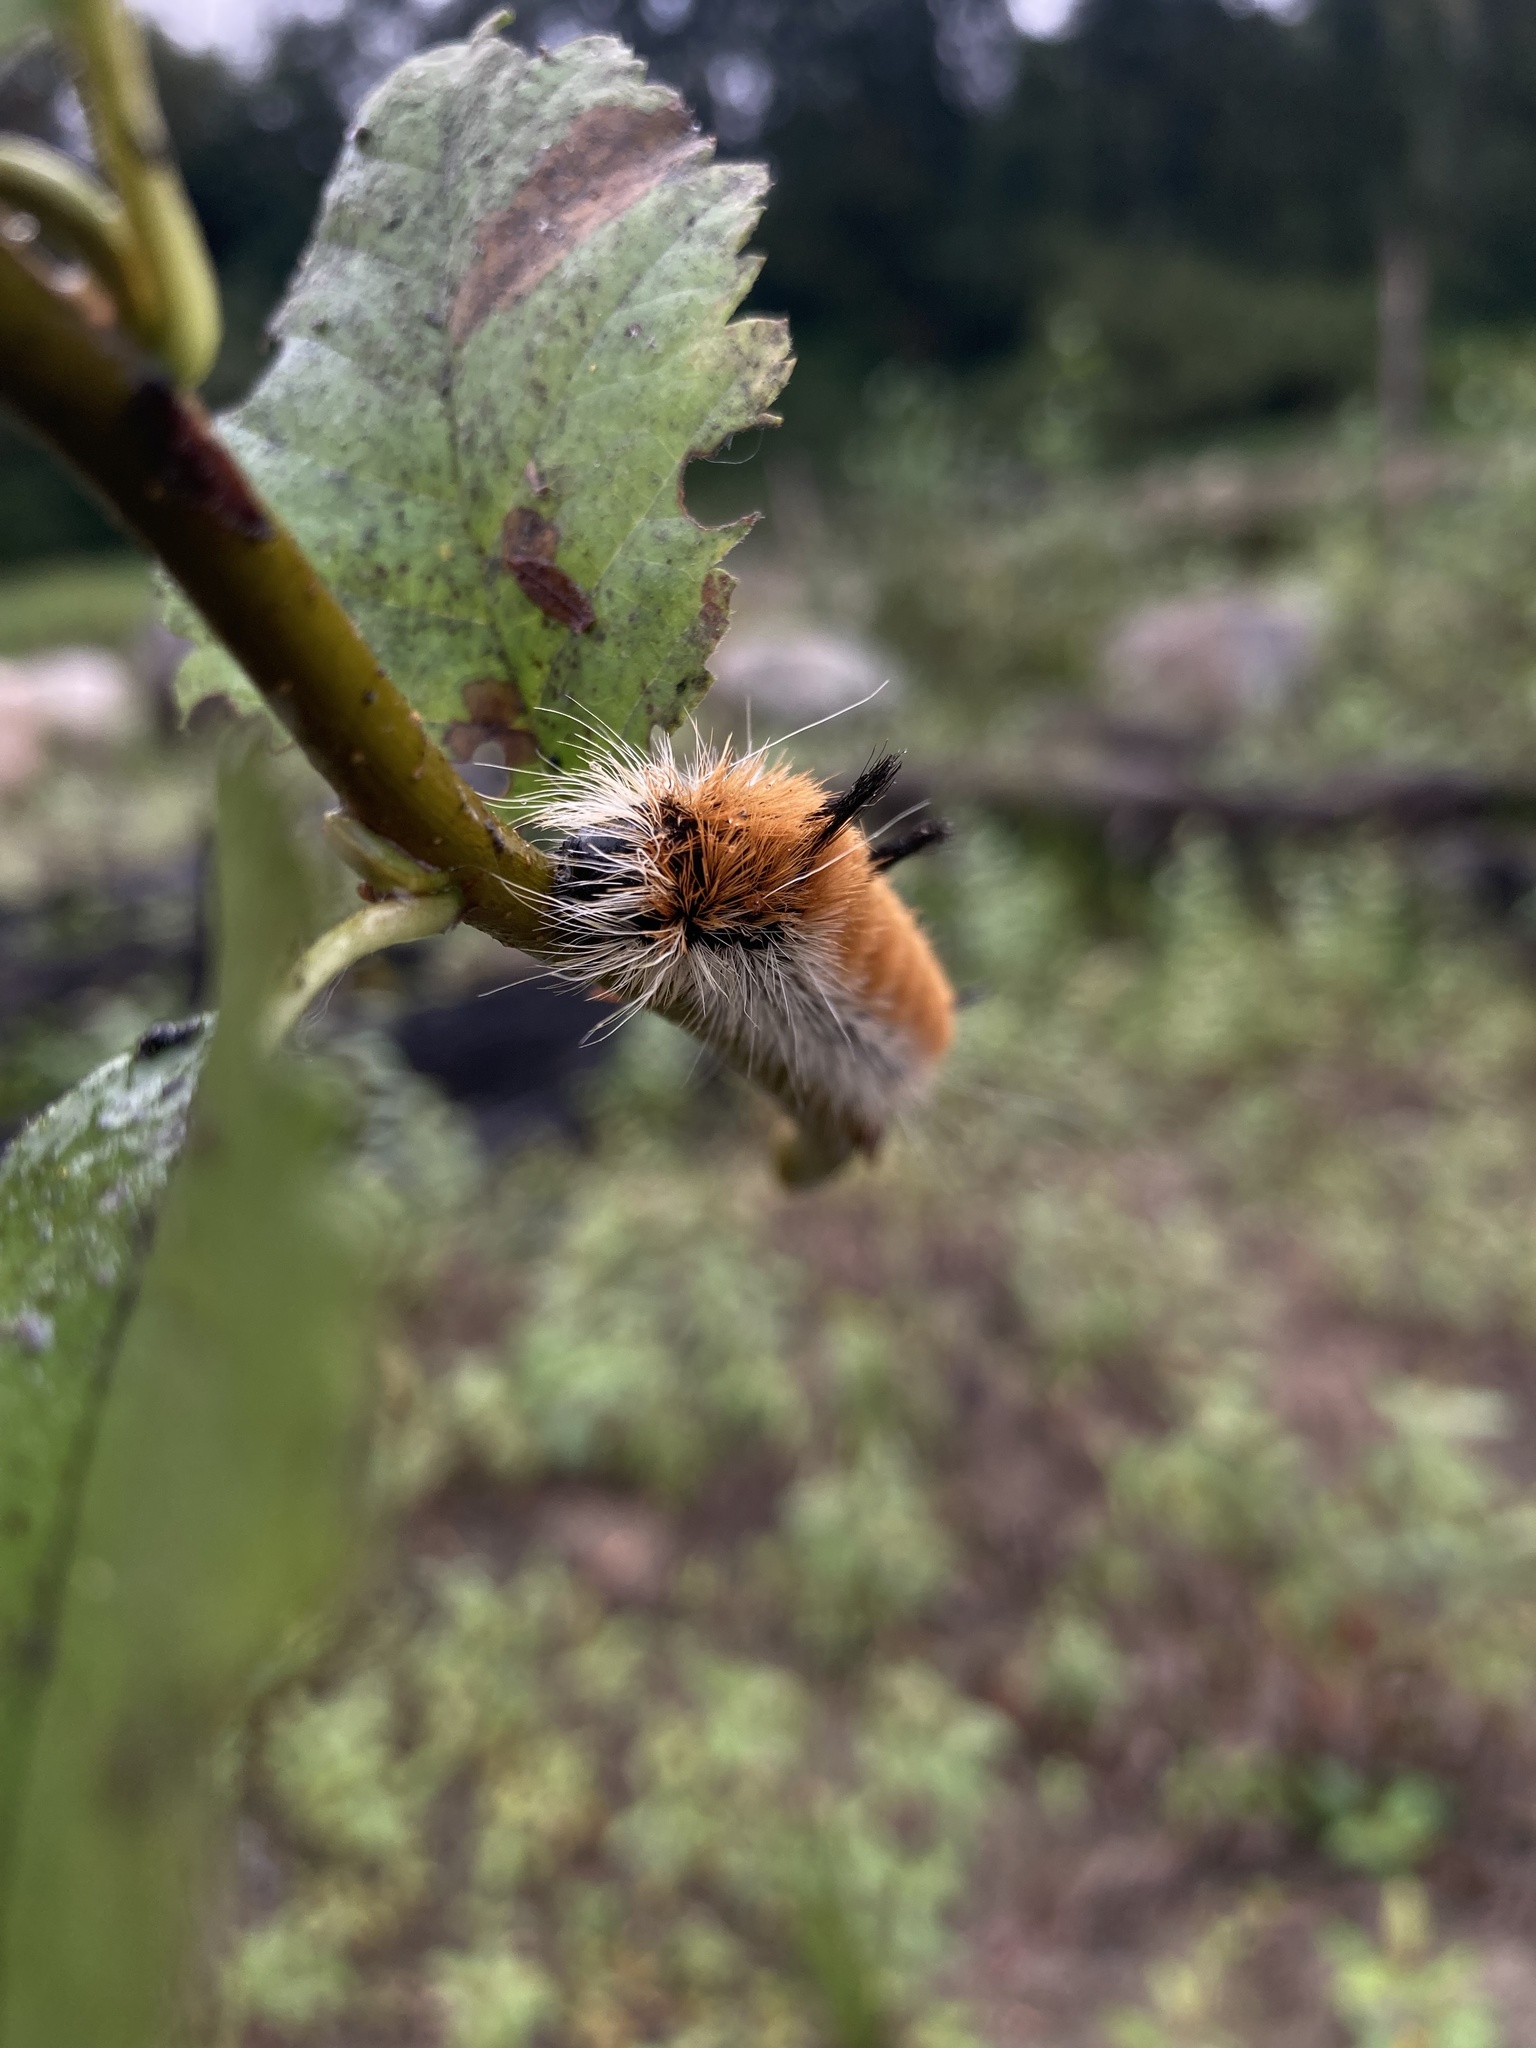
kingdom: Animalia
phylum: Arthropoda
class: Insecta
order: Lepidoptera
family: Noctuidae
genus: Acronicta
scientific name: Acronicta insita
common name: Large gray dagger
